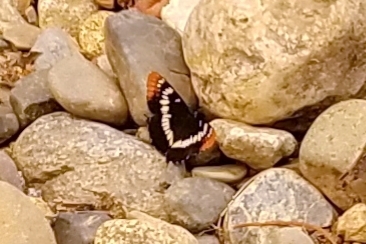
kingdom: Animalia
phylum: Arthropoda
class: Insecta
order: Lepidoptera
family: Nymphalidae
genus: Limenitis
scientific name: Limenitis lorquini
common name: Lorquin's admiral
